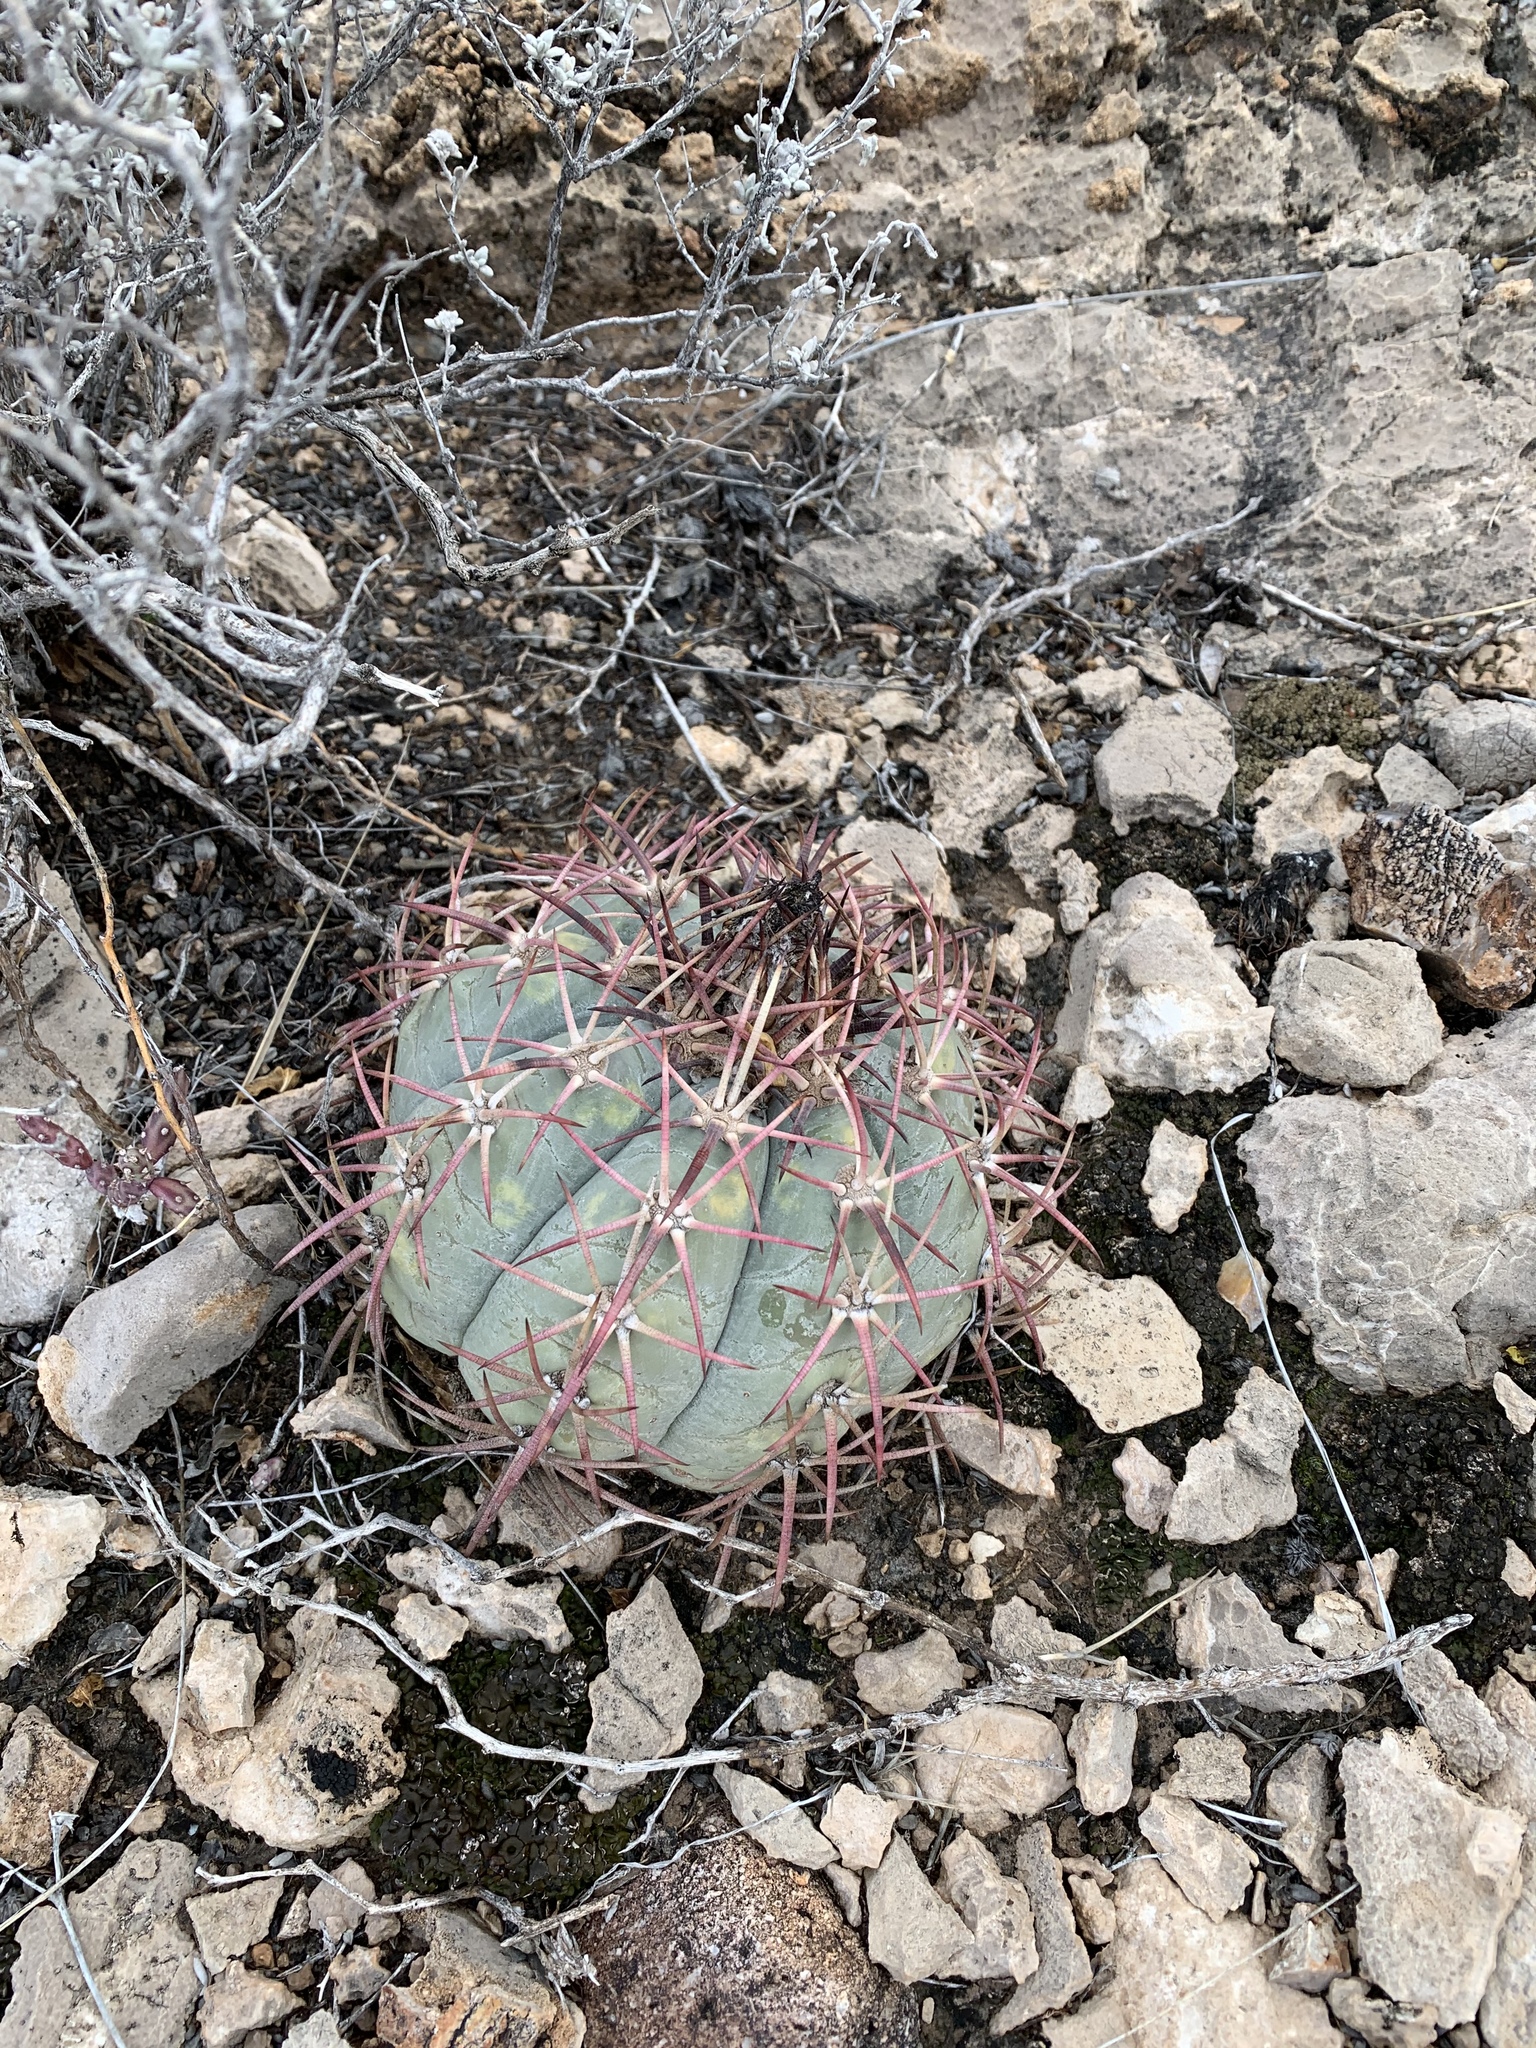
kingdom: Plantae
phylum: Tracheophyta
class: Magnoliopsida
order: Caryophyllales
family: Cactaceae
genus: Echinocactus
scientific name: Echinocactus horizonthalonius
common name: Devilshead
